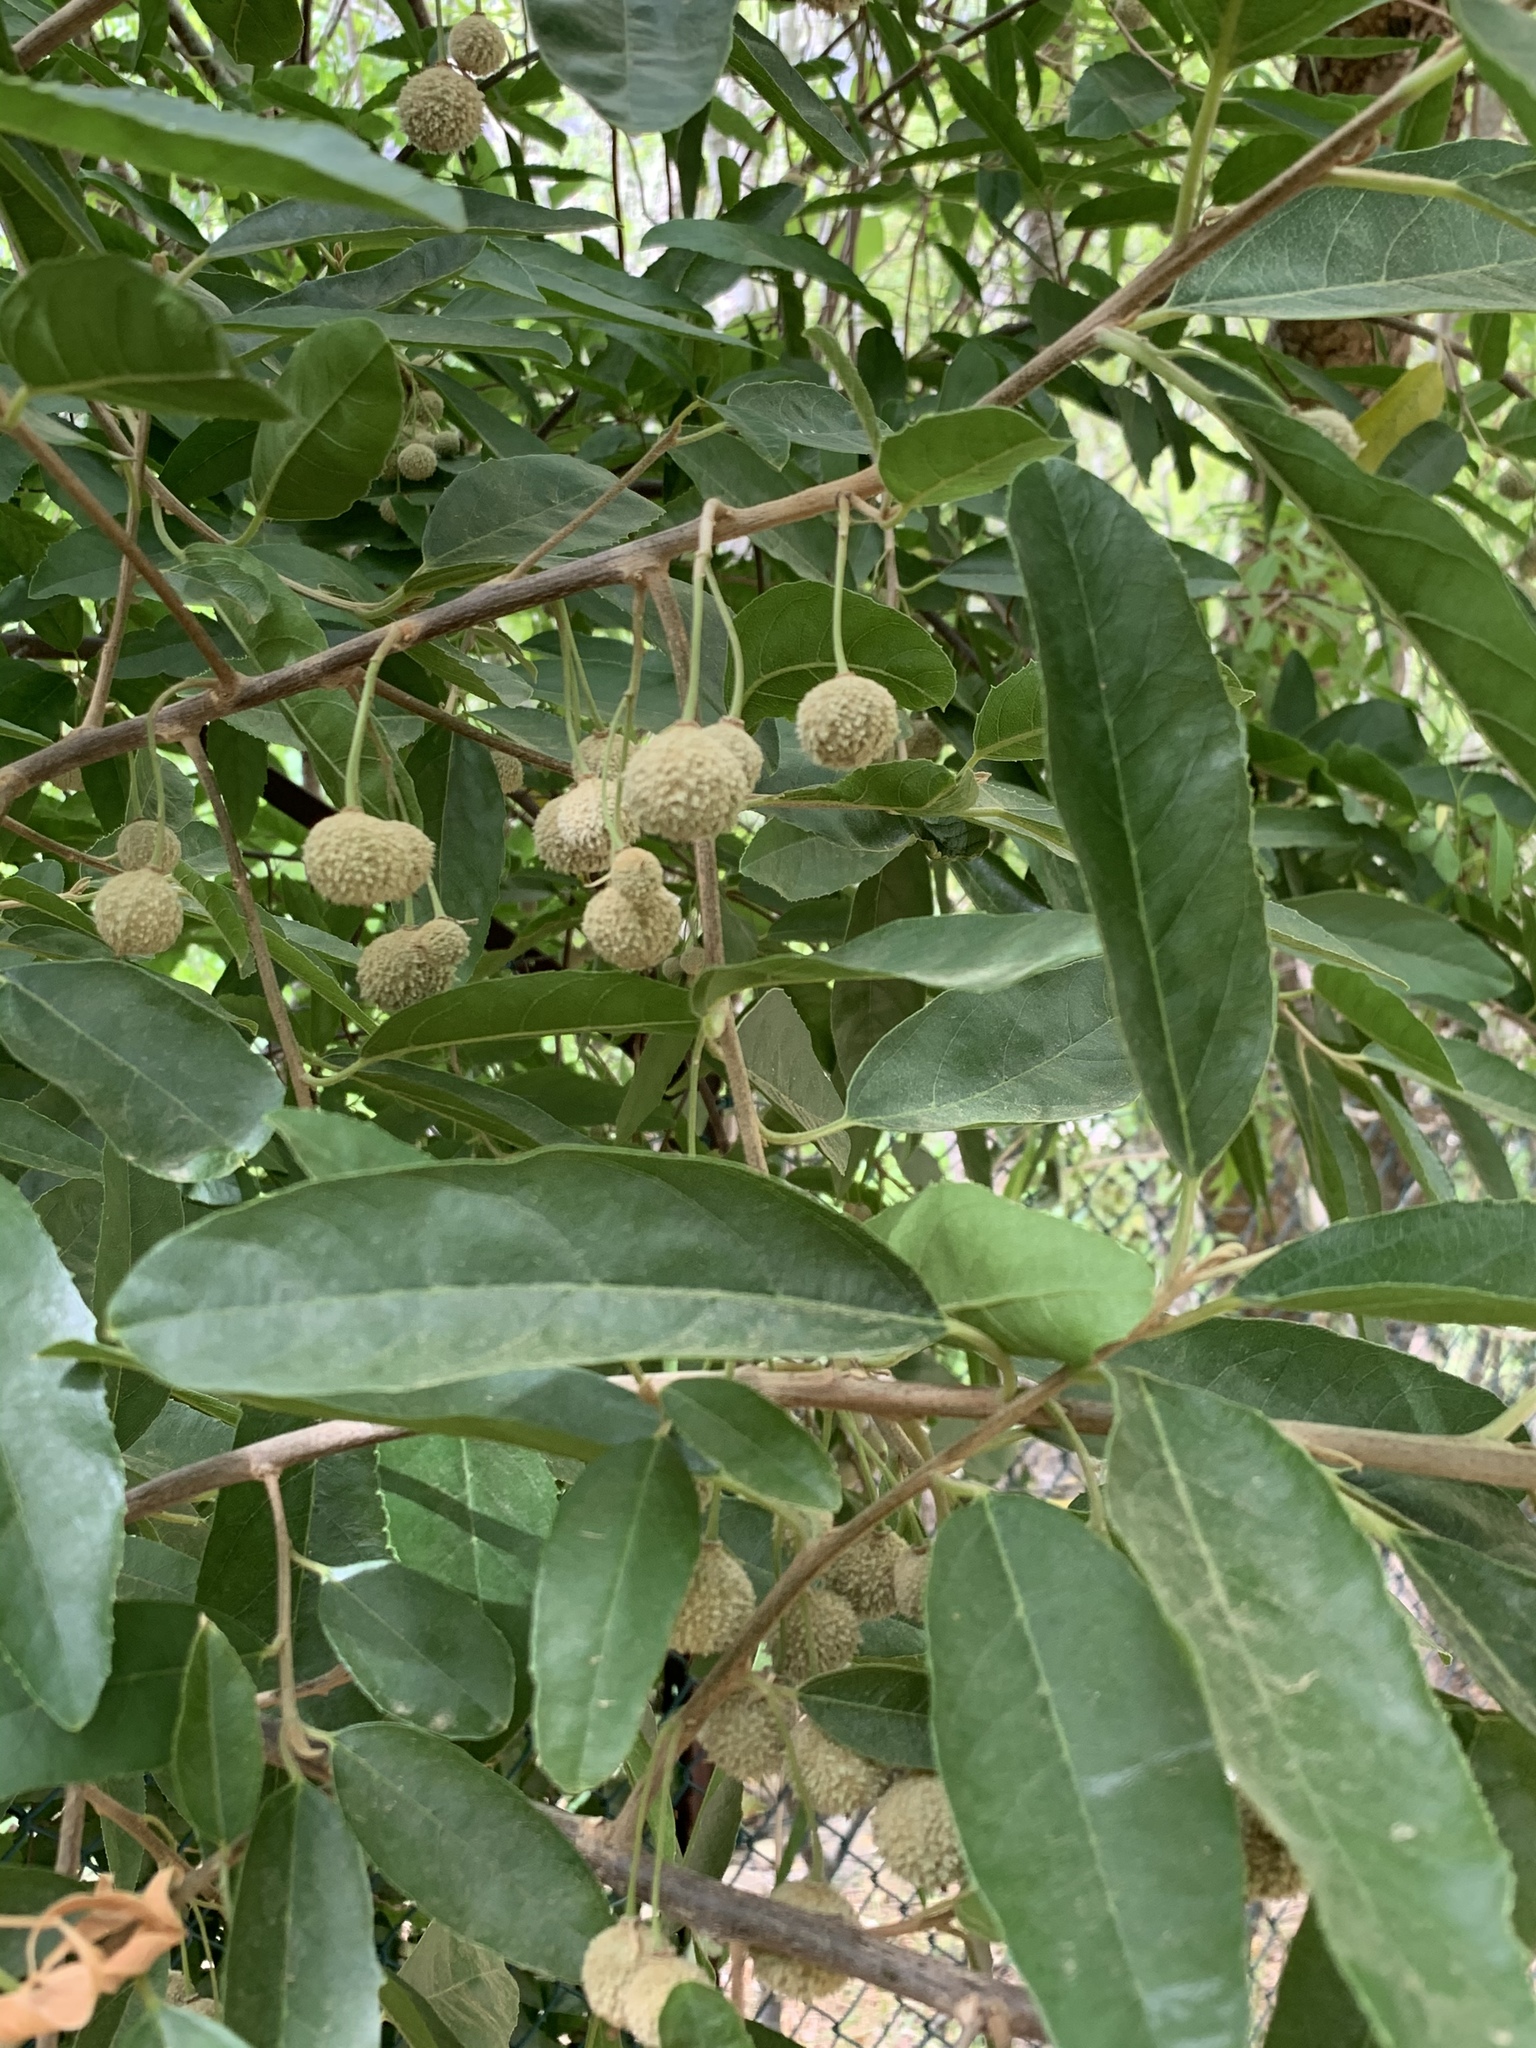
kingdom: Plantae
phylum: Tracheophyta
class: Magnoliopsida
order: Malpighiales
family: Achariaceae
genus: Kiggelaria
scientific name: Kiggelaria africana
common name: Wild peach
